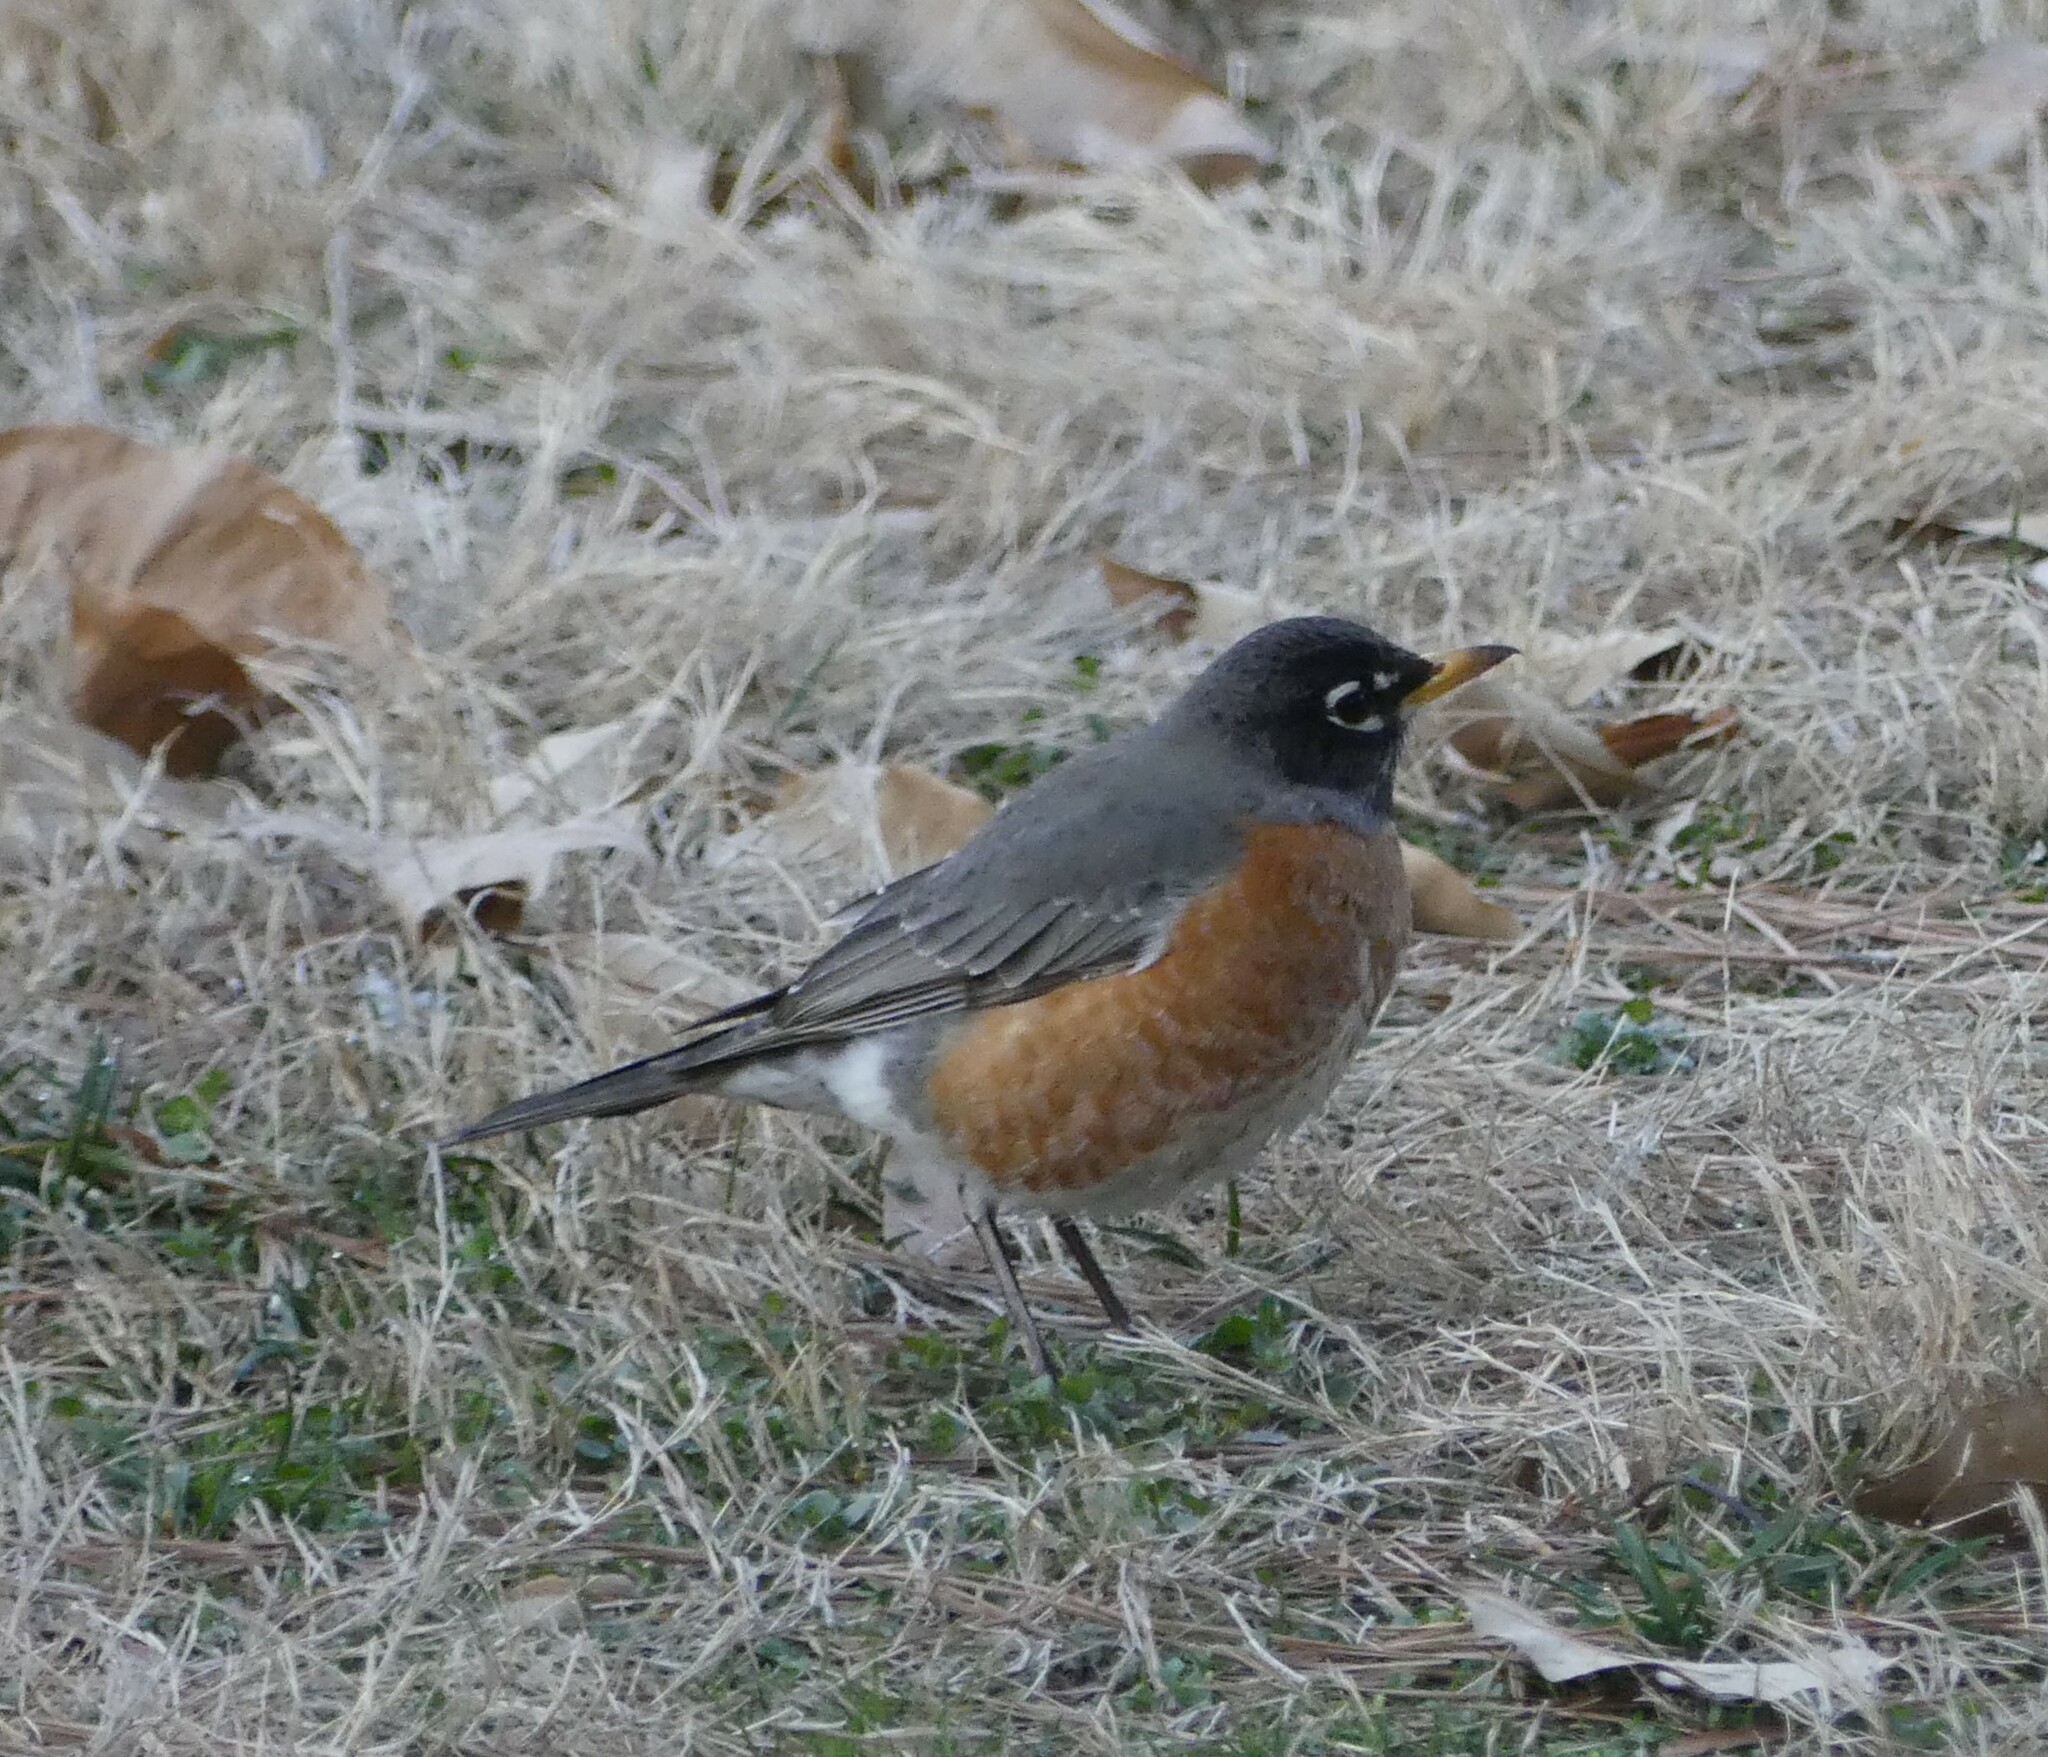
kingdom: Animalia
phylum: Chordata
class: Aves
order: Passeriformes
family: Turdidae
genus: Turdus
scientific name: Turdus migratorius
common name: American robin
